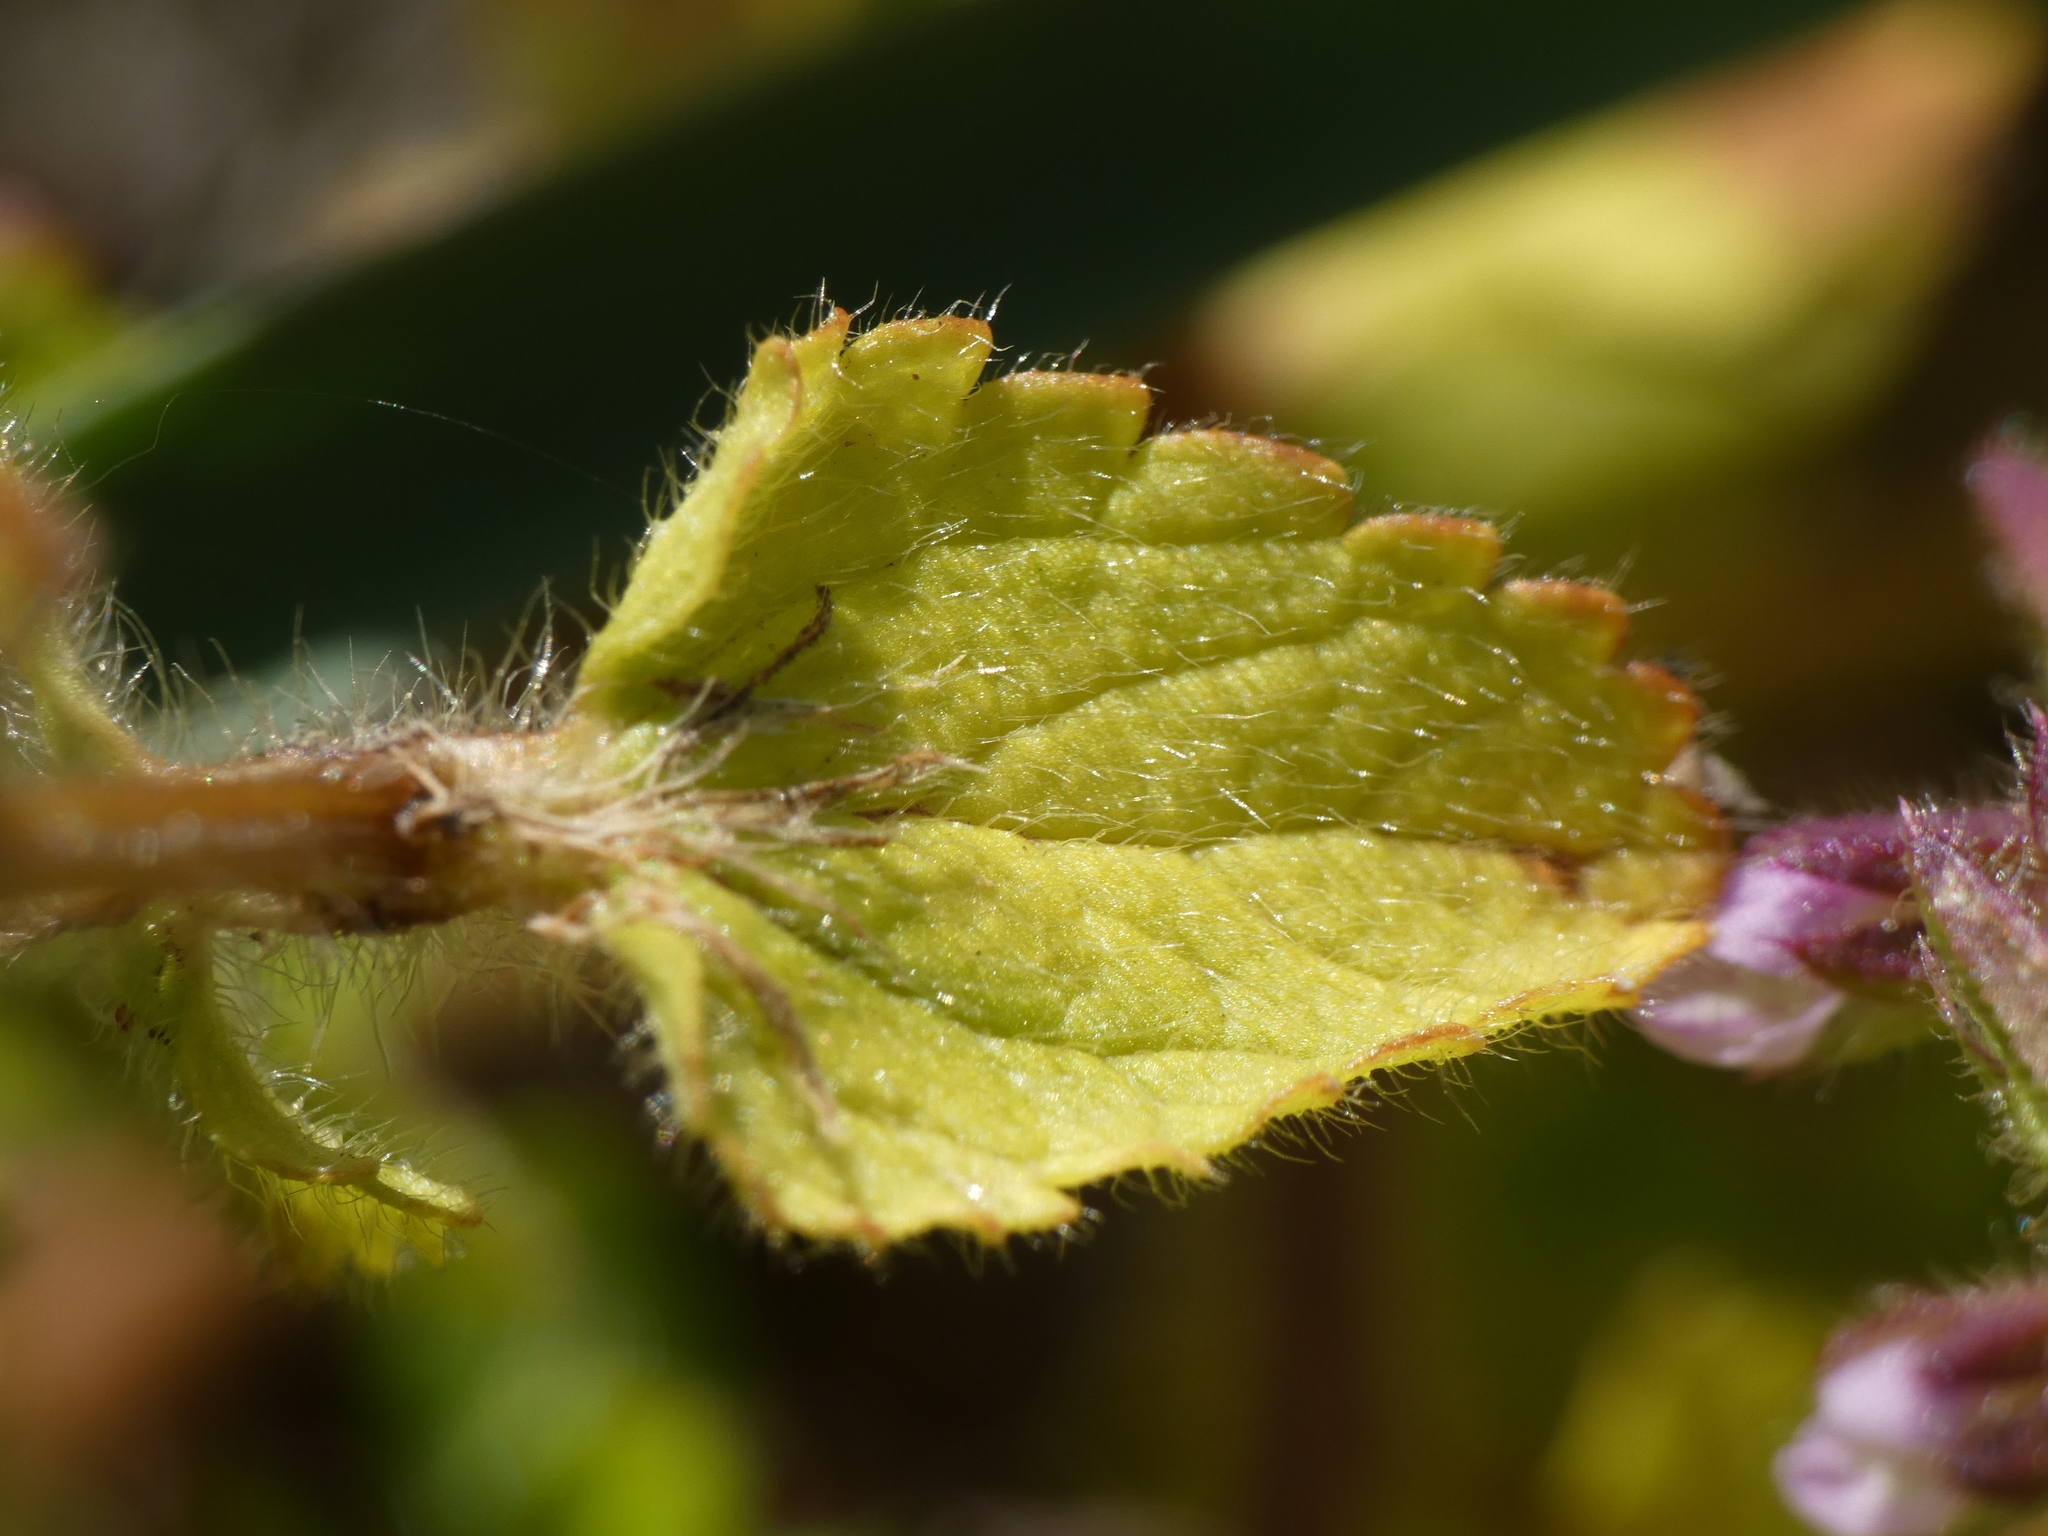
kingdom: Plantae
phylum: Tracheophyta
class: Magnoliopsida
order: Lamiales
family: Lamiaceae
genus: Stachys
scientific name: Stachys arvensis
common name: Field woundwort
